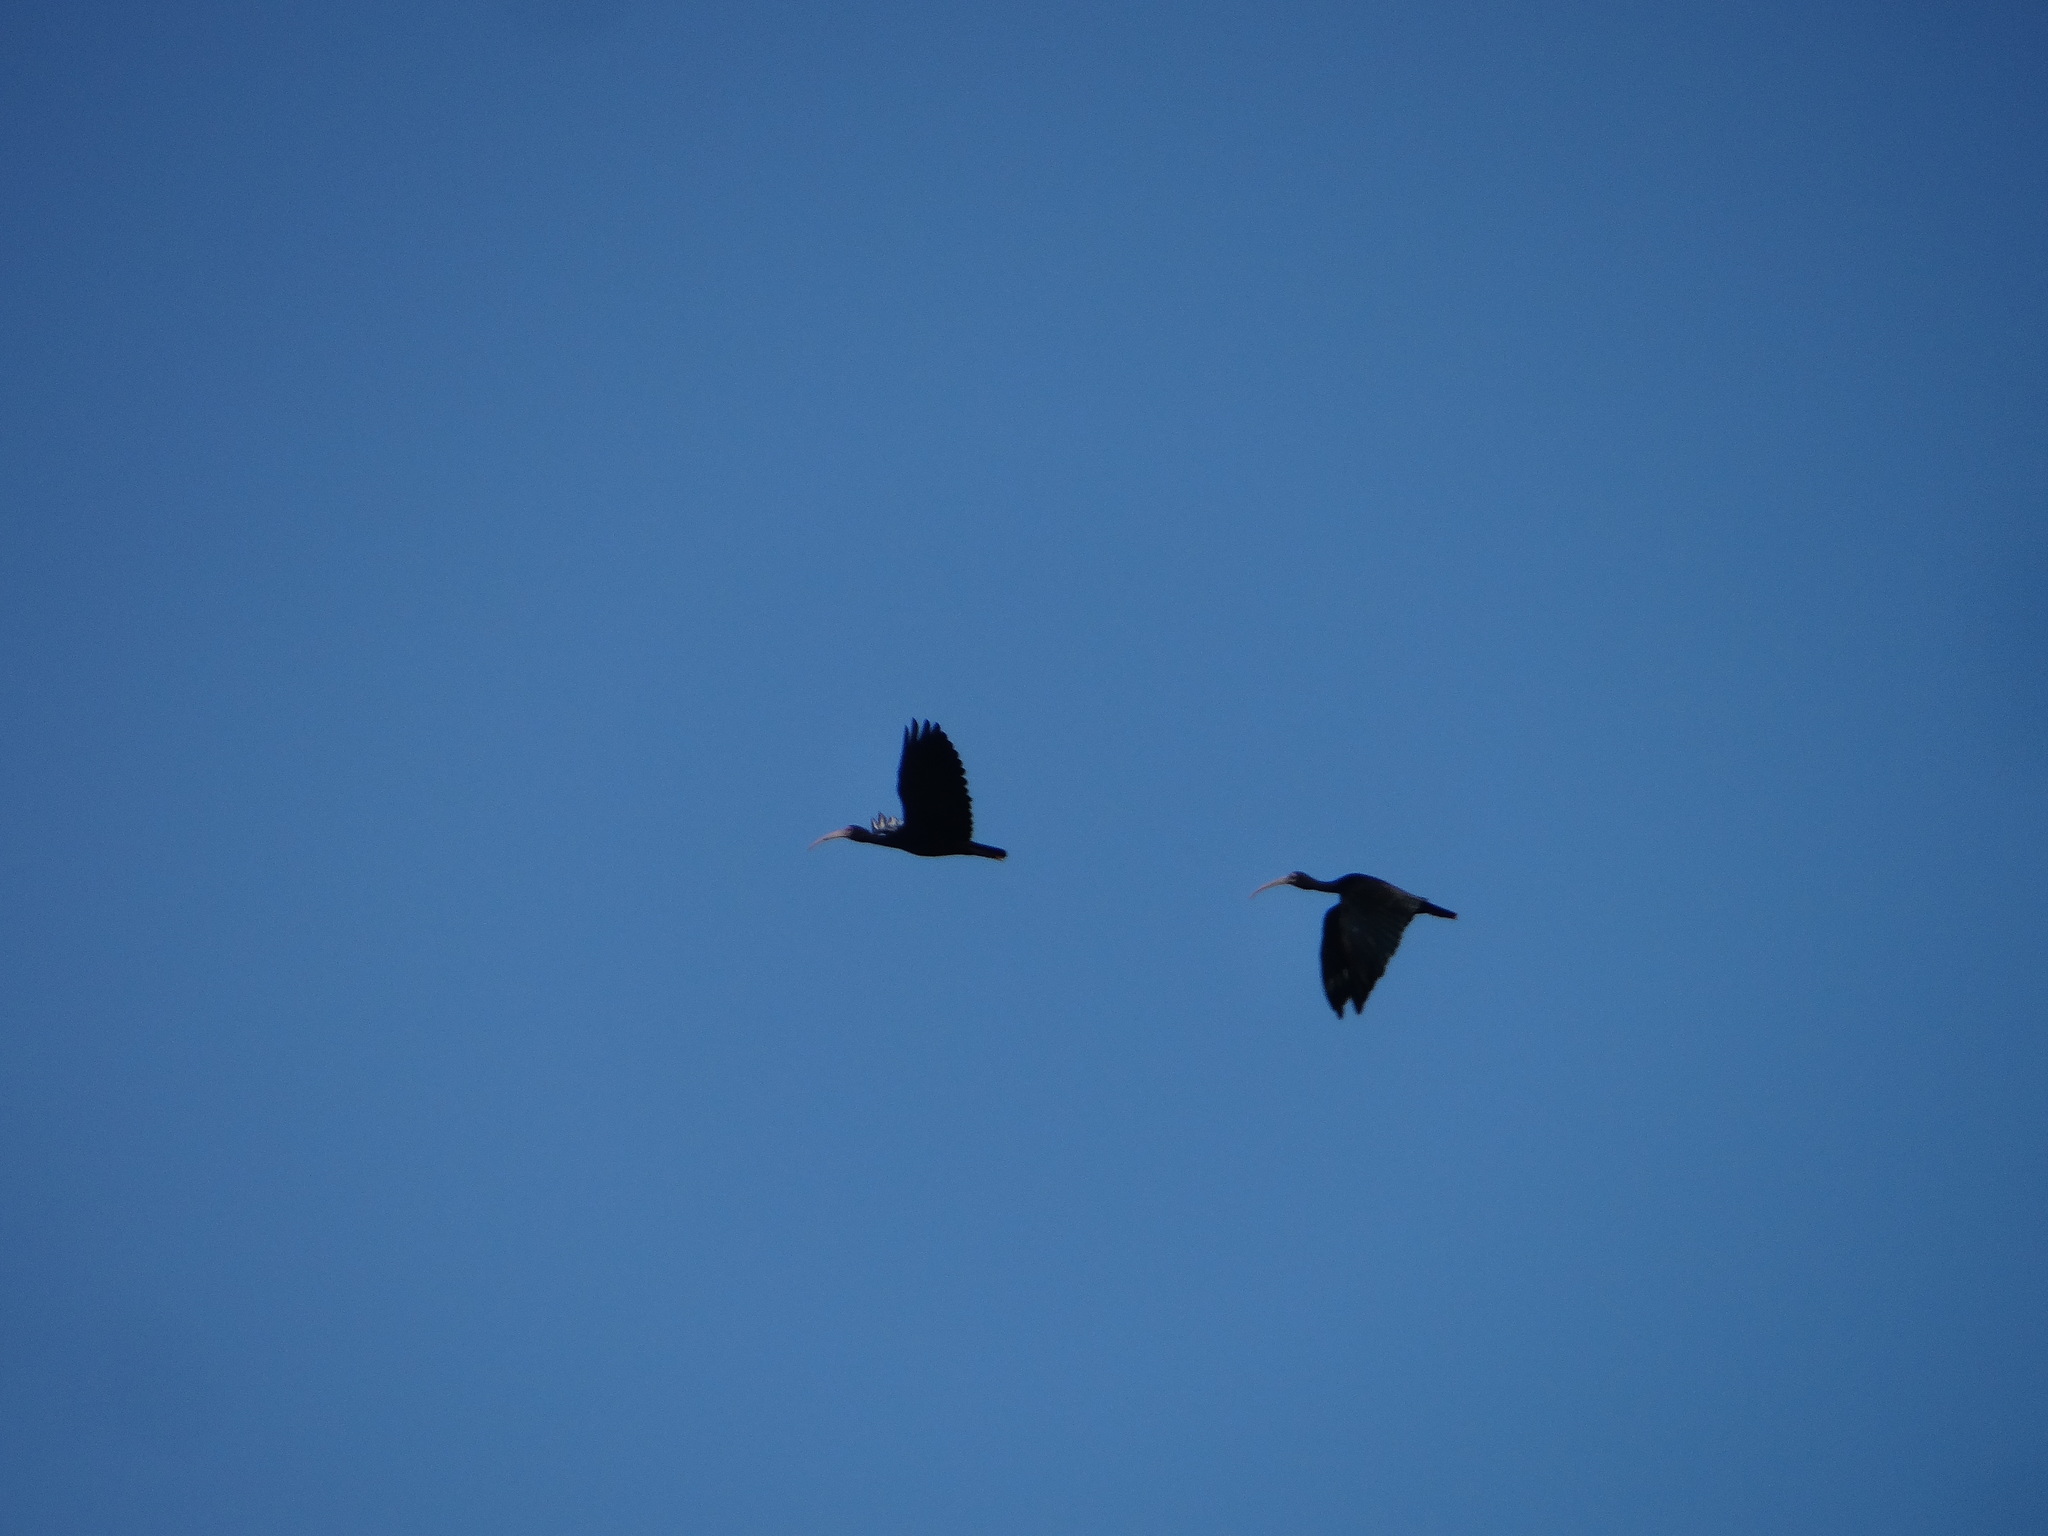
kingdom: Animalia
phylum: Chordata
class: Aves
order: Pelecaniformes
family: Threskiornithidae
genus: Phimosus
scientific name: Phimosus infuscatus
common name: Bare-faced ibis
